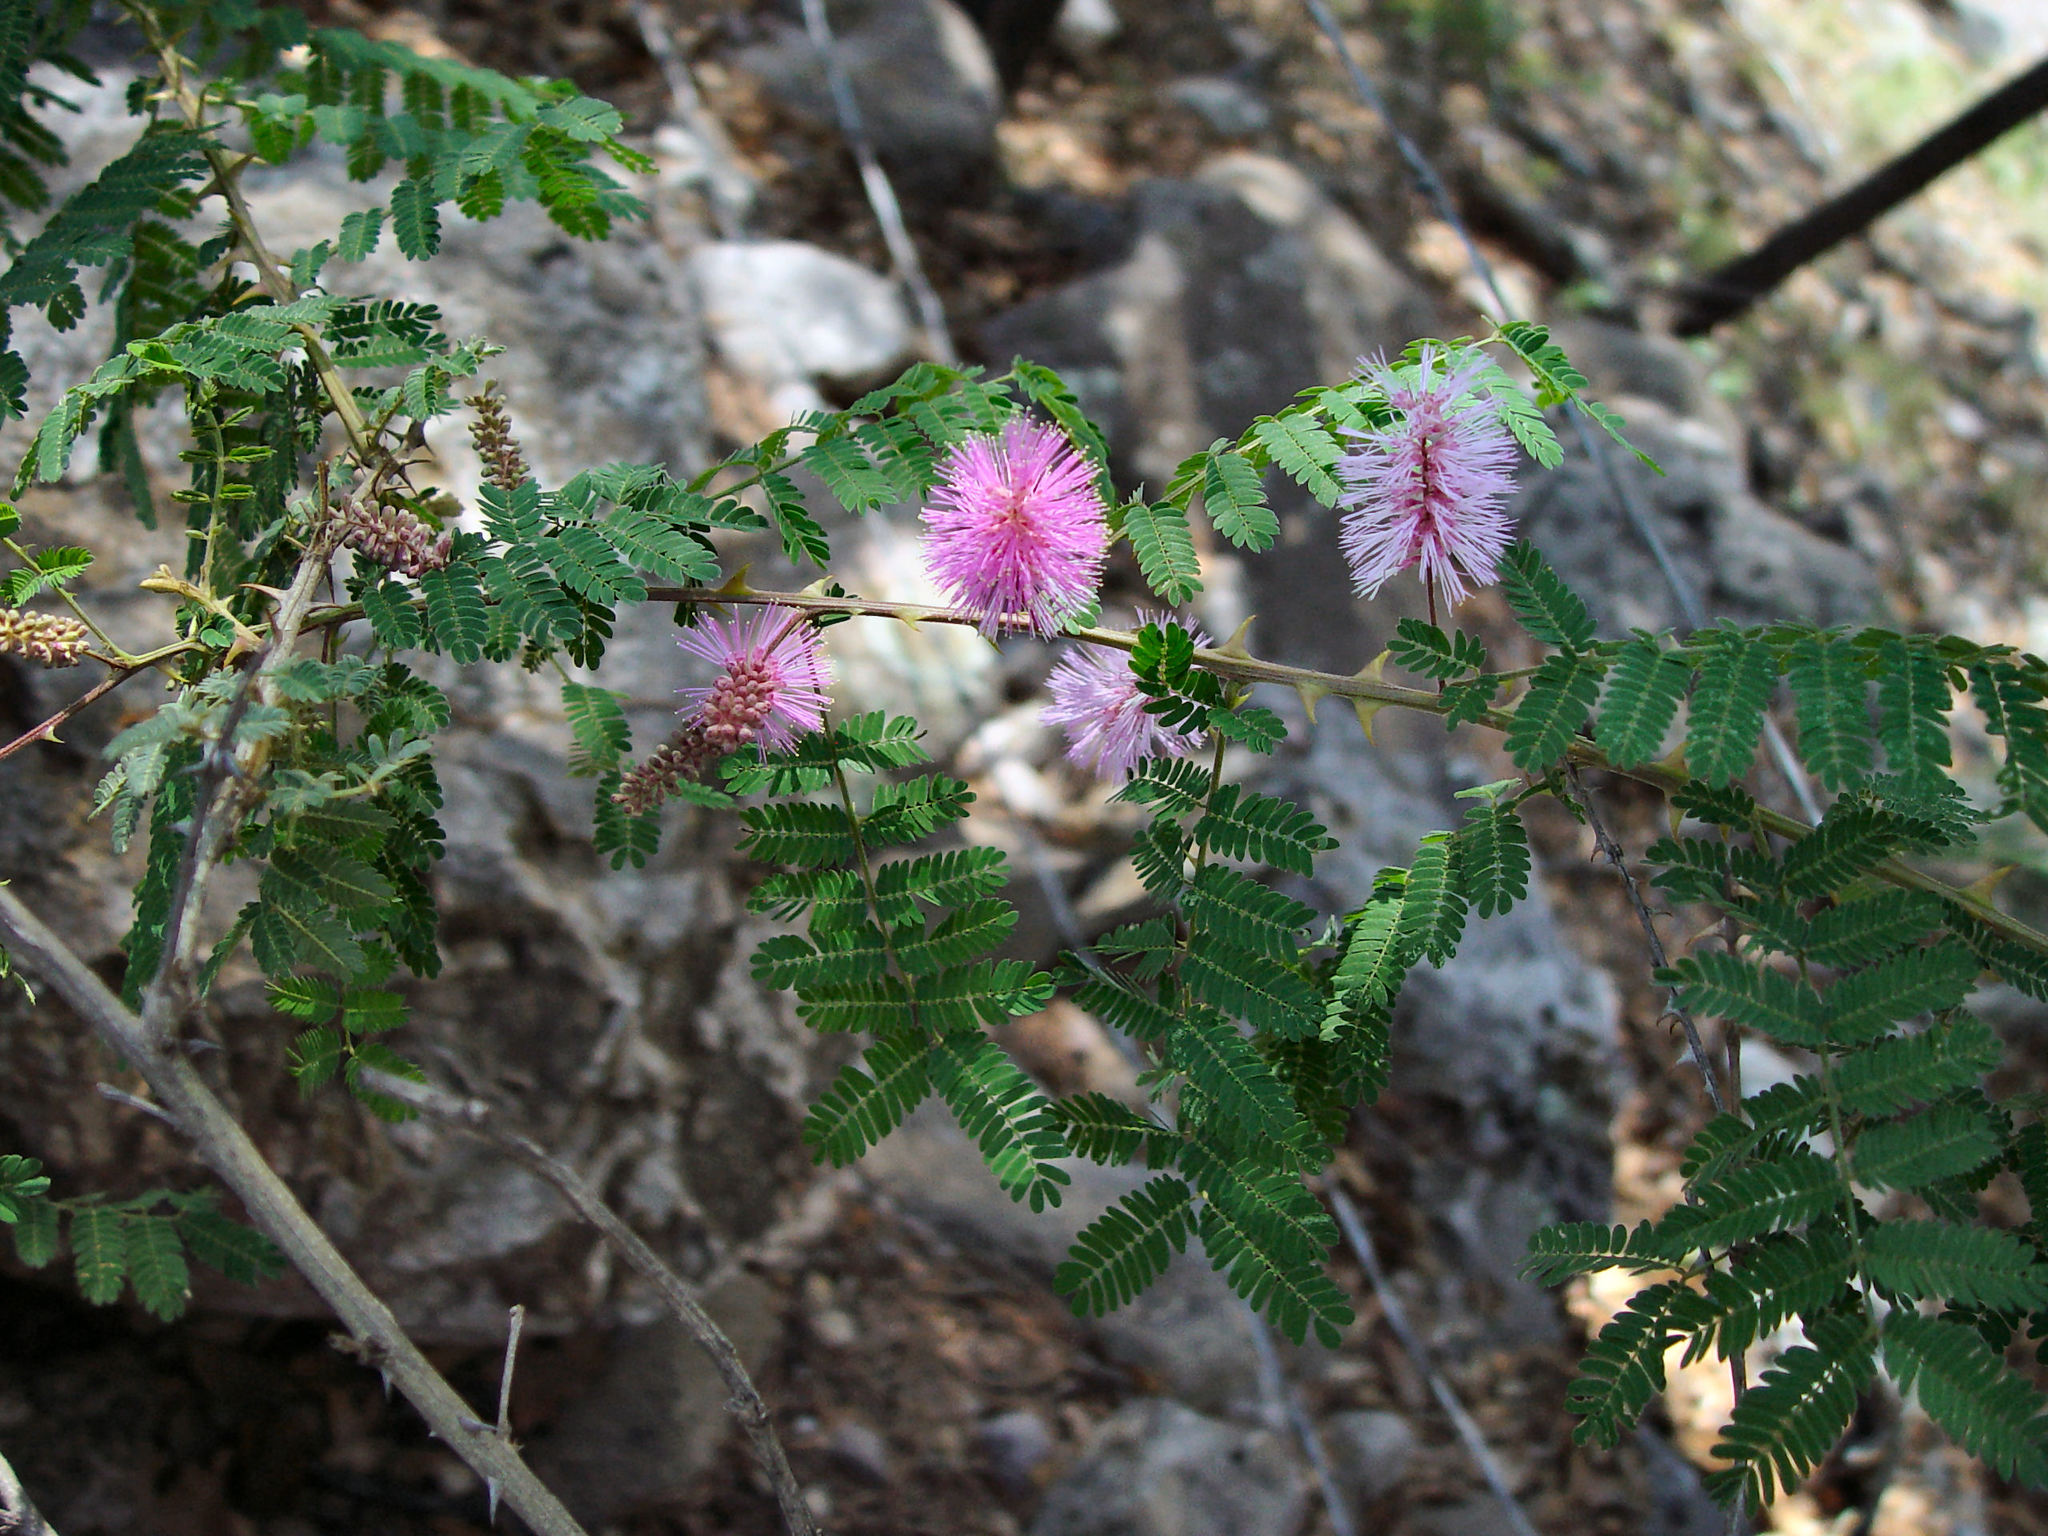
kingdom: Plantae
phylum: Tracheophyta
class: Magnoliopsida
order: Fabales
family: Fabaceae
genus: Mimosa
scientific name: Mimosa dysocarpa
